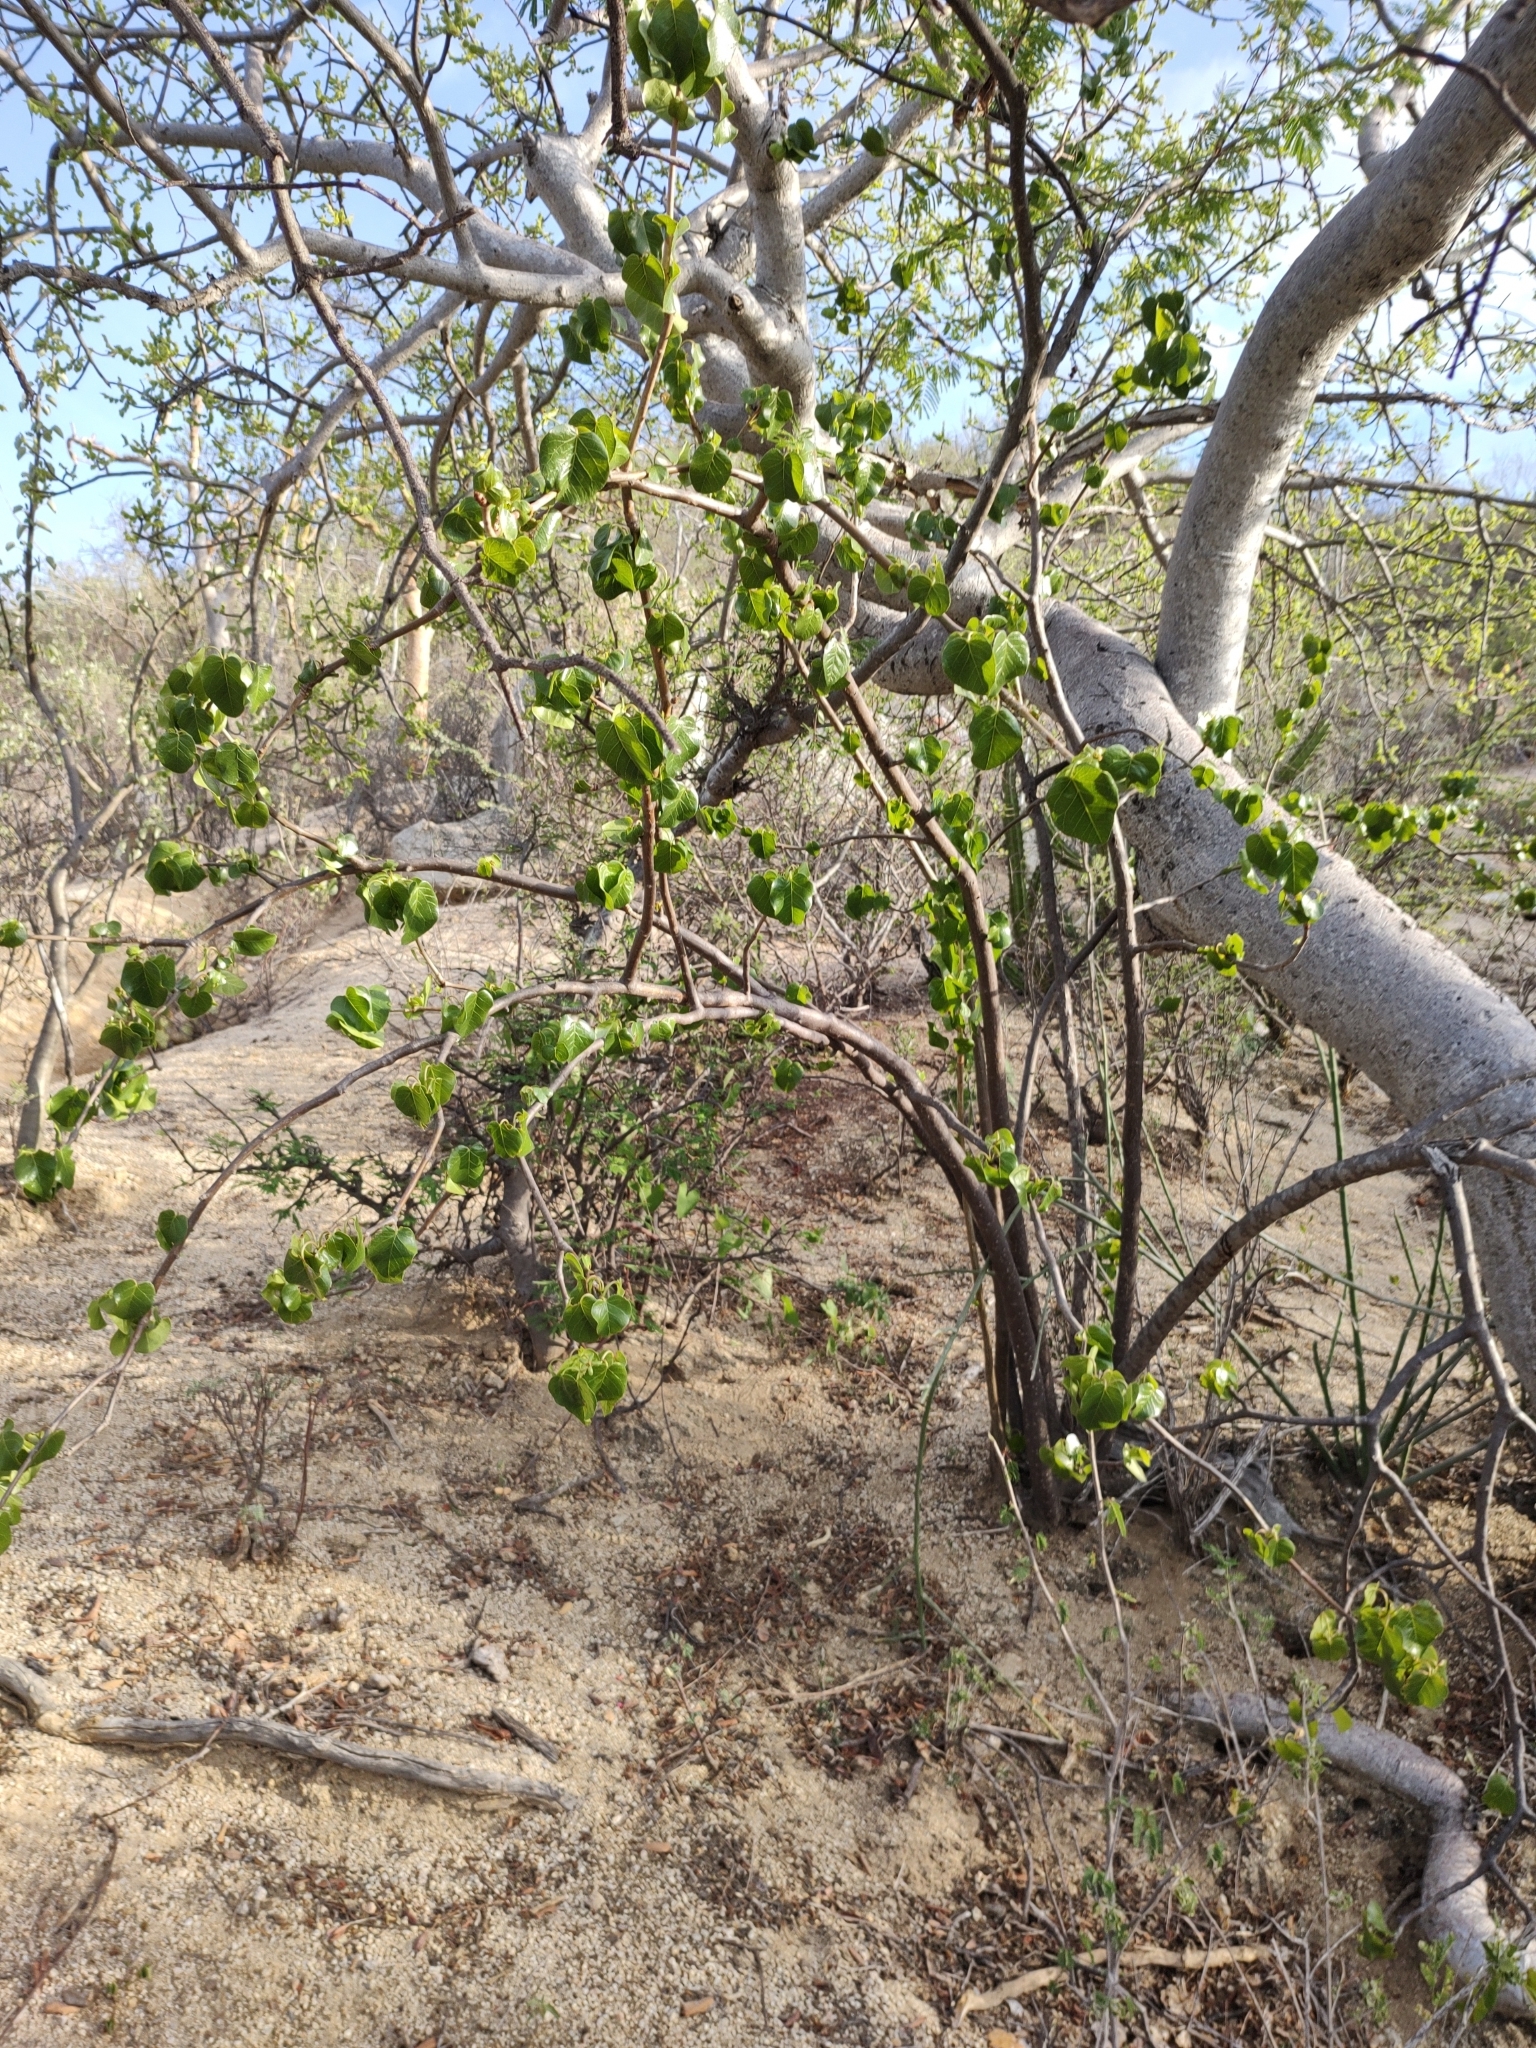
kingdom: Plantae
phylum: Tracheophyta
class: Magnoliopsida
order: Malpighiales
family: Euphorbiaceae
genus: Jatropha
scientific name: Jatropha vernicosa
